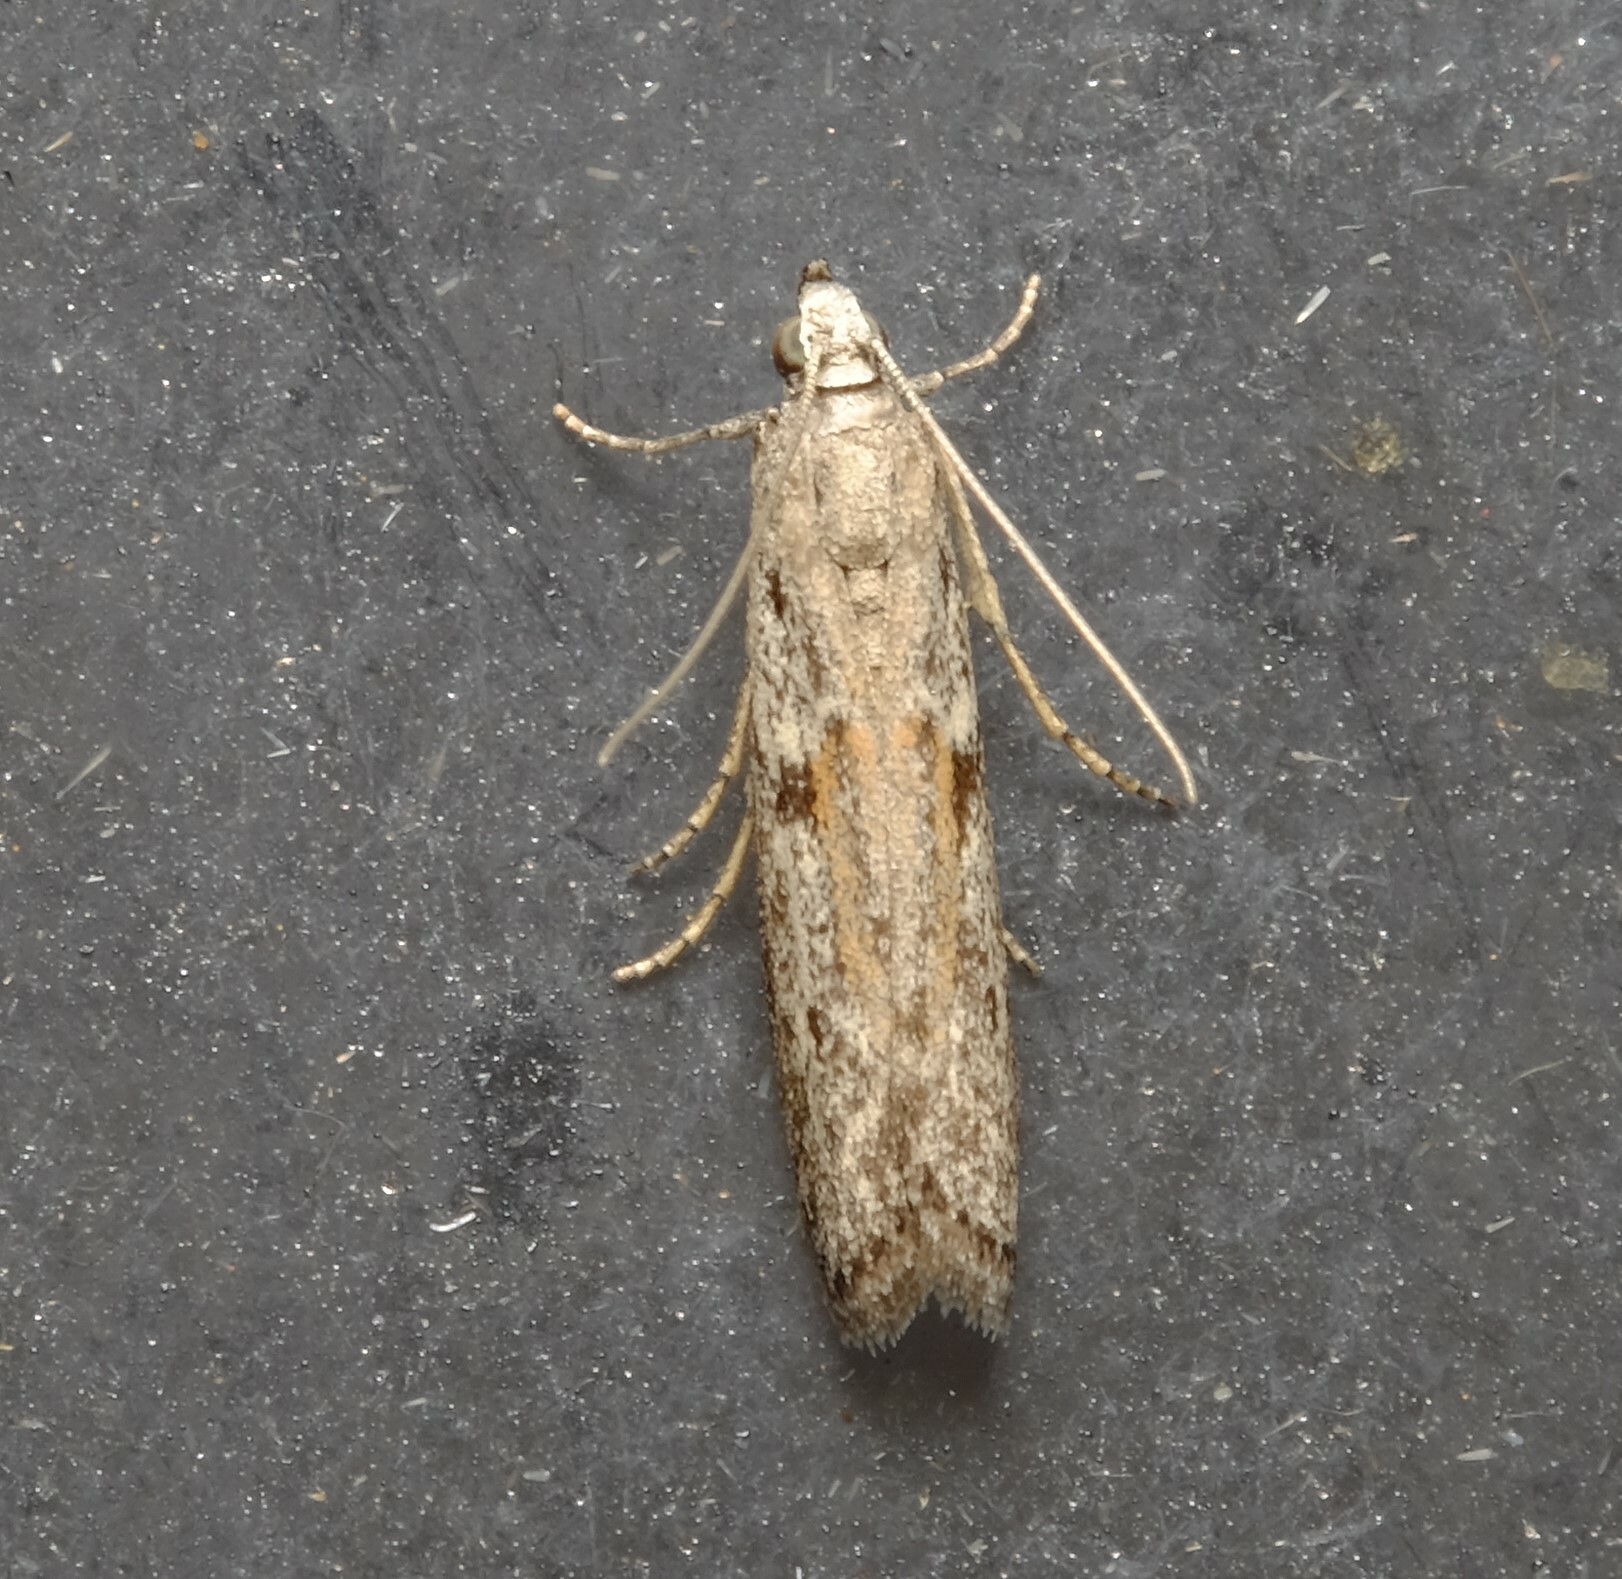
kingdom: Animalia
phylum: Arthropoda
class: Insecta
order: Lepidoptera
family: Pyralidae
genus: Homoeosoma
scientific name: Homoeosoma vagella
